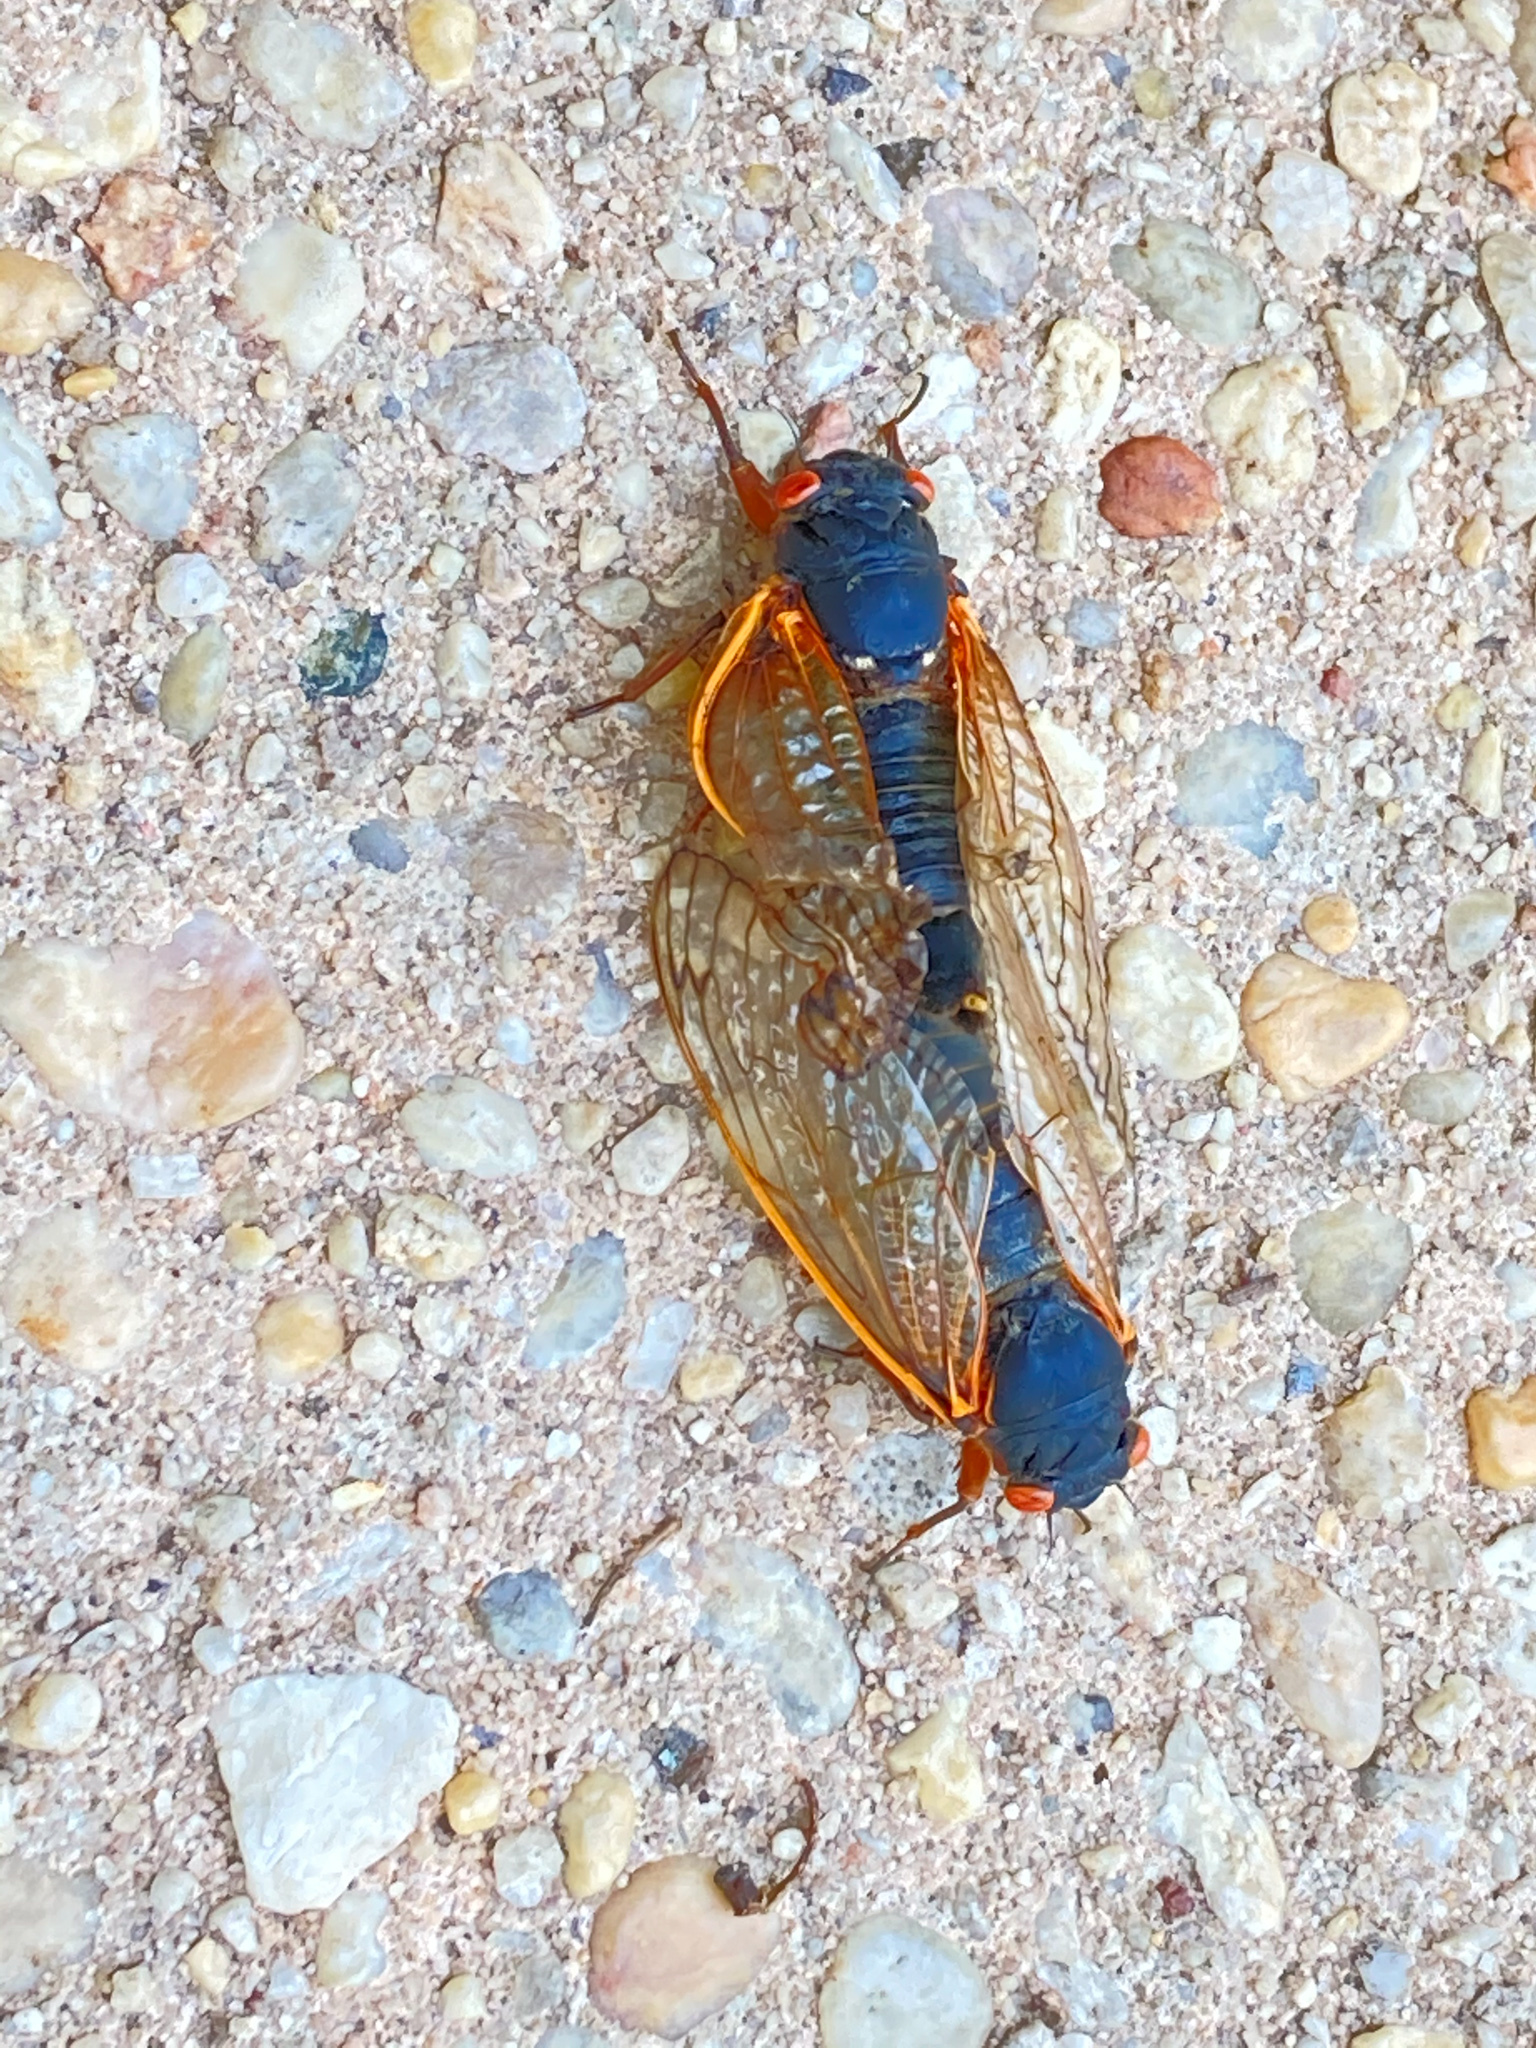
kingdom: Animalia
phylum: Arthropoda
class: Insecta
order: Hemiptera
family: Cicadidae
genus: Magicicada
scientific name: Magicicada septendecim
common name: Periodical cicada
